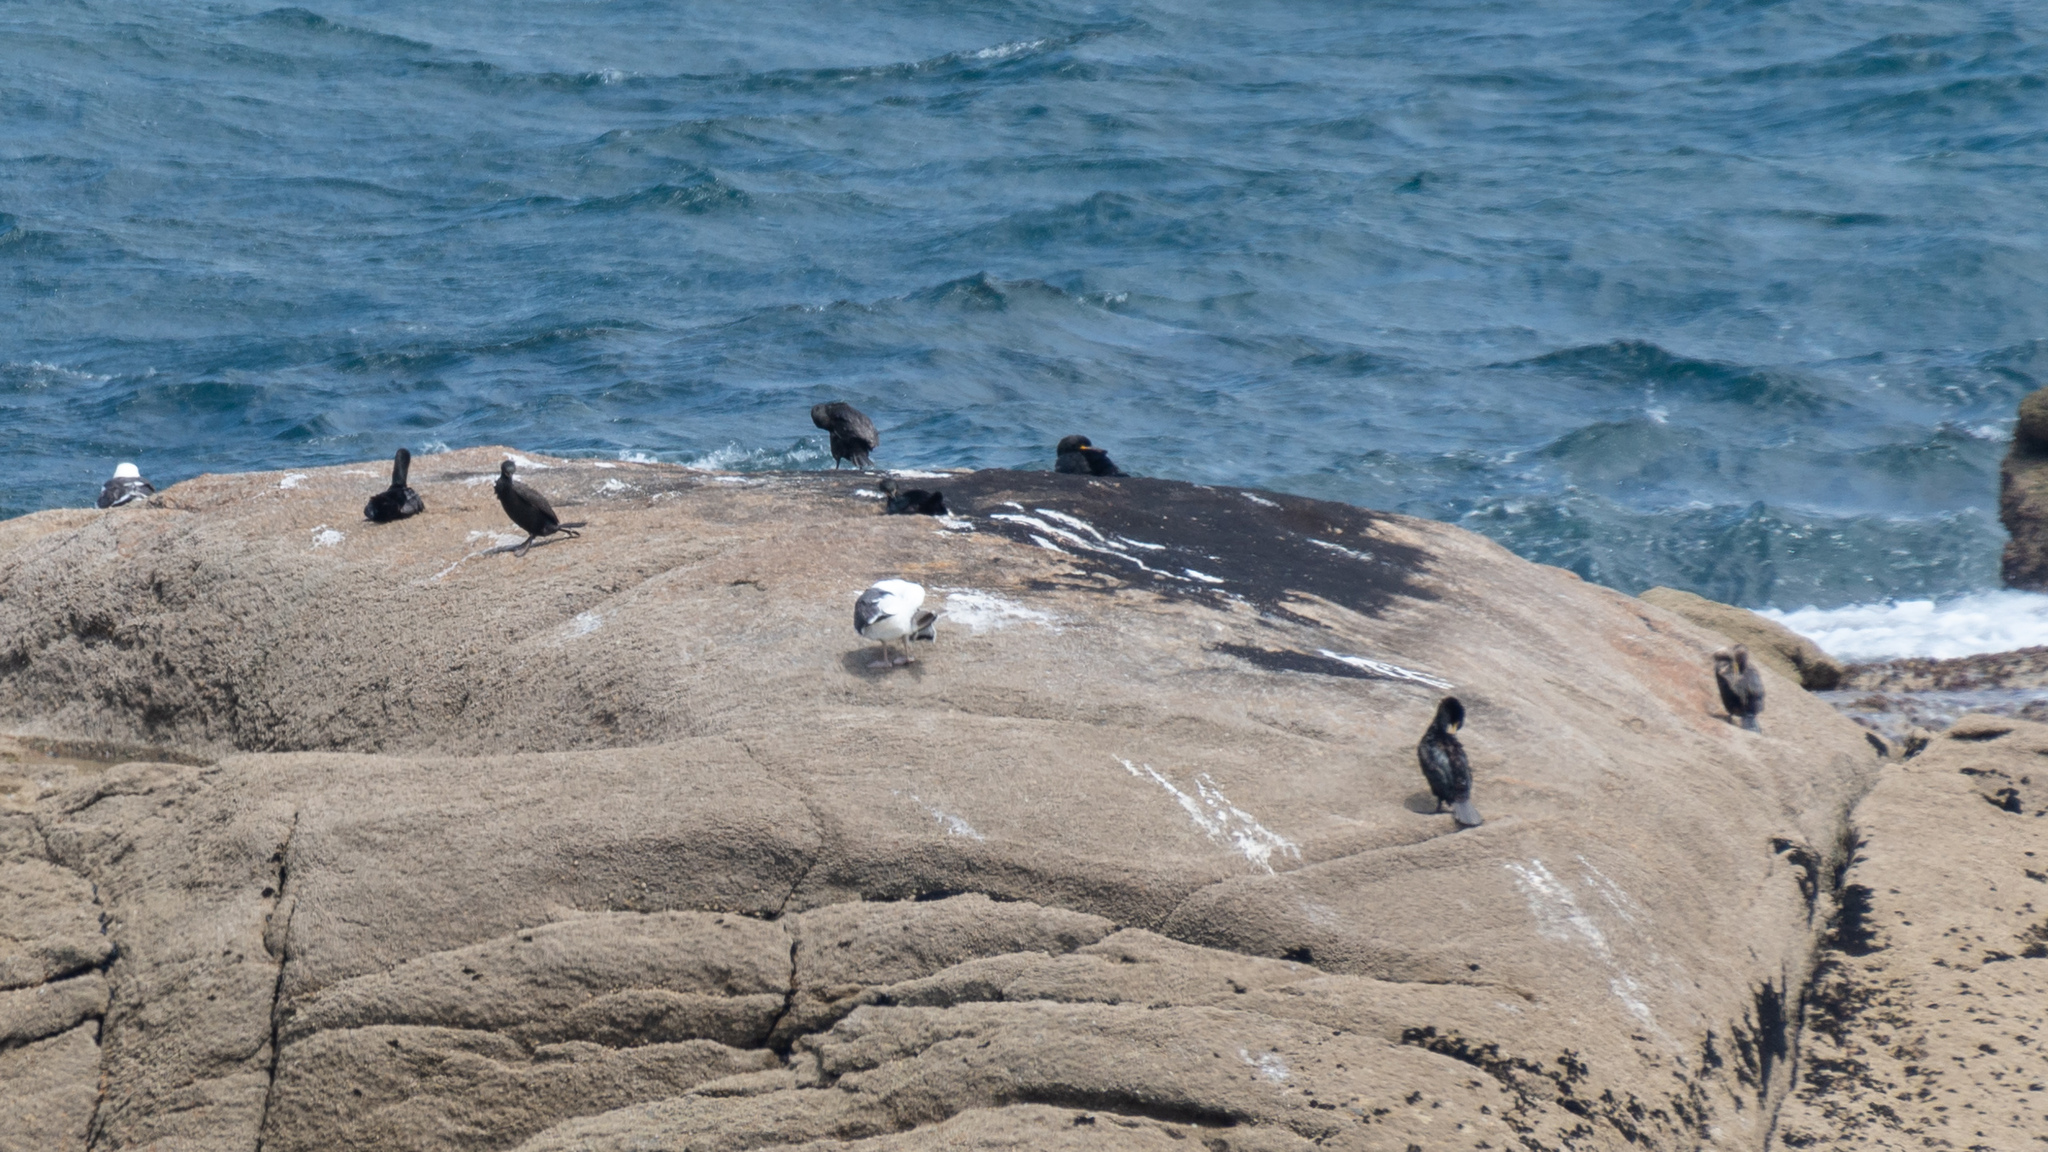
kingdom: Animalia
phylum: Chordata
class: Aves
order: Suliformes
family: Phalacrocoracidae
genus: Phalacrocorax
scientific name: Phalacrocorax aristotelis
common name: European shag
